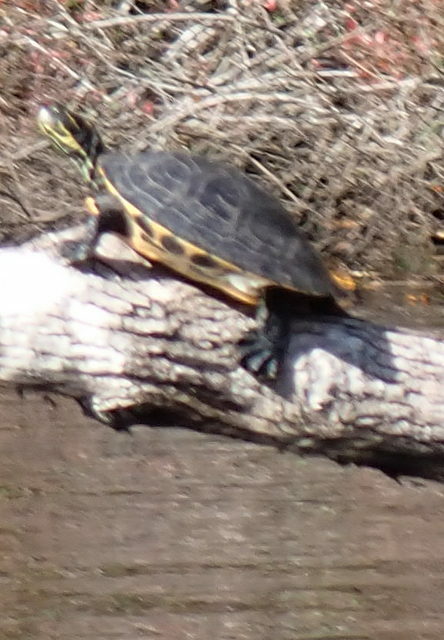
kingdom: Animalia
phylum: Chordata
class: Testudines
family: Emydidae
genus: Pseudemys
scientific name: Pseudemys concinna
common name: Eastern river cooter
